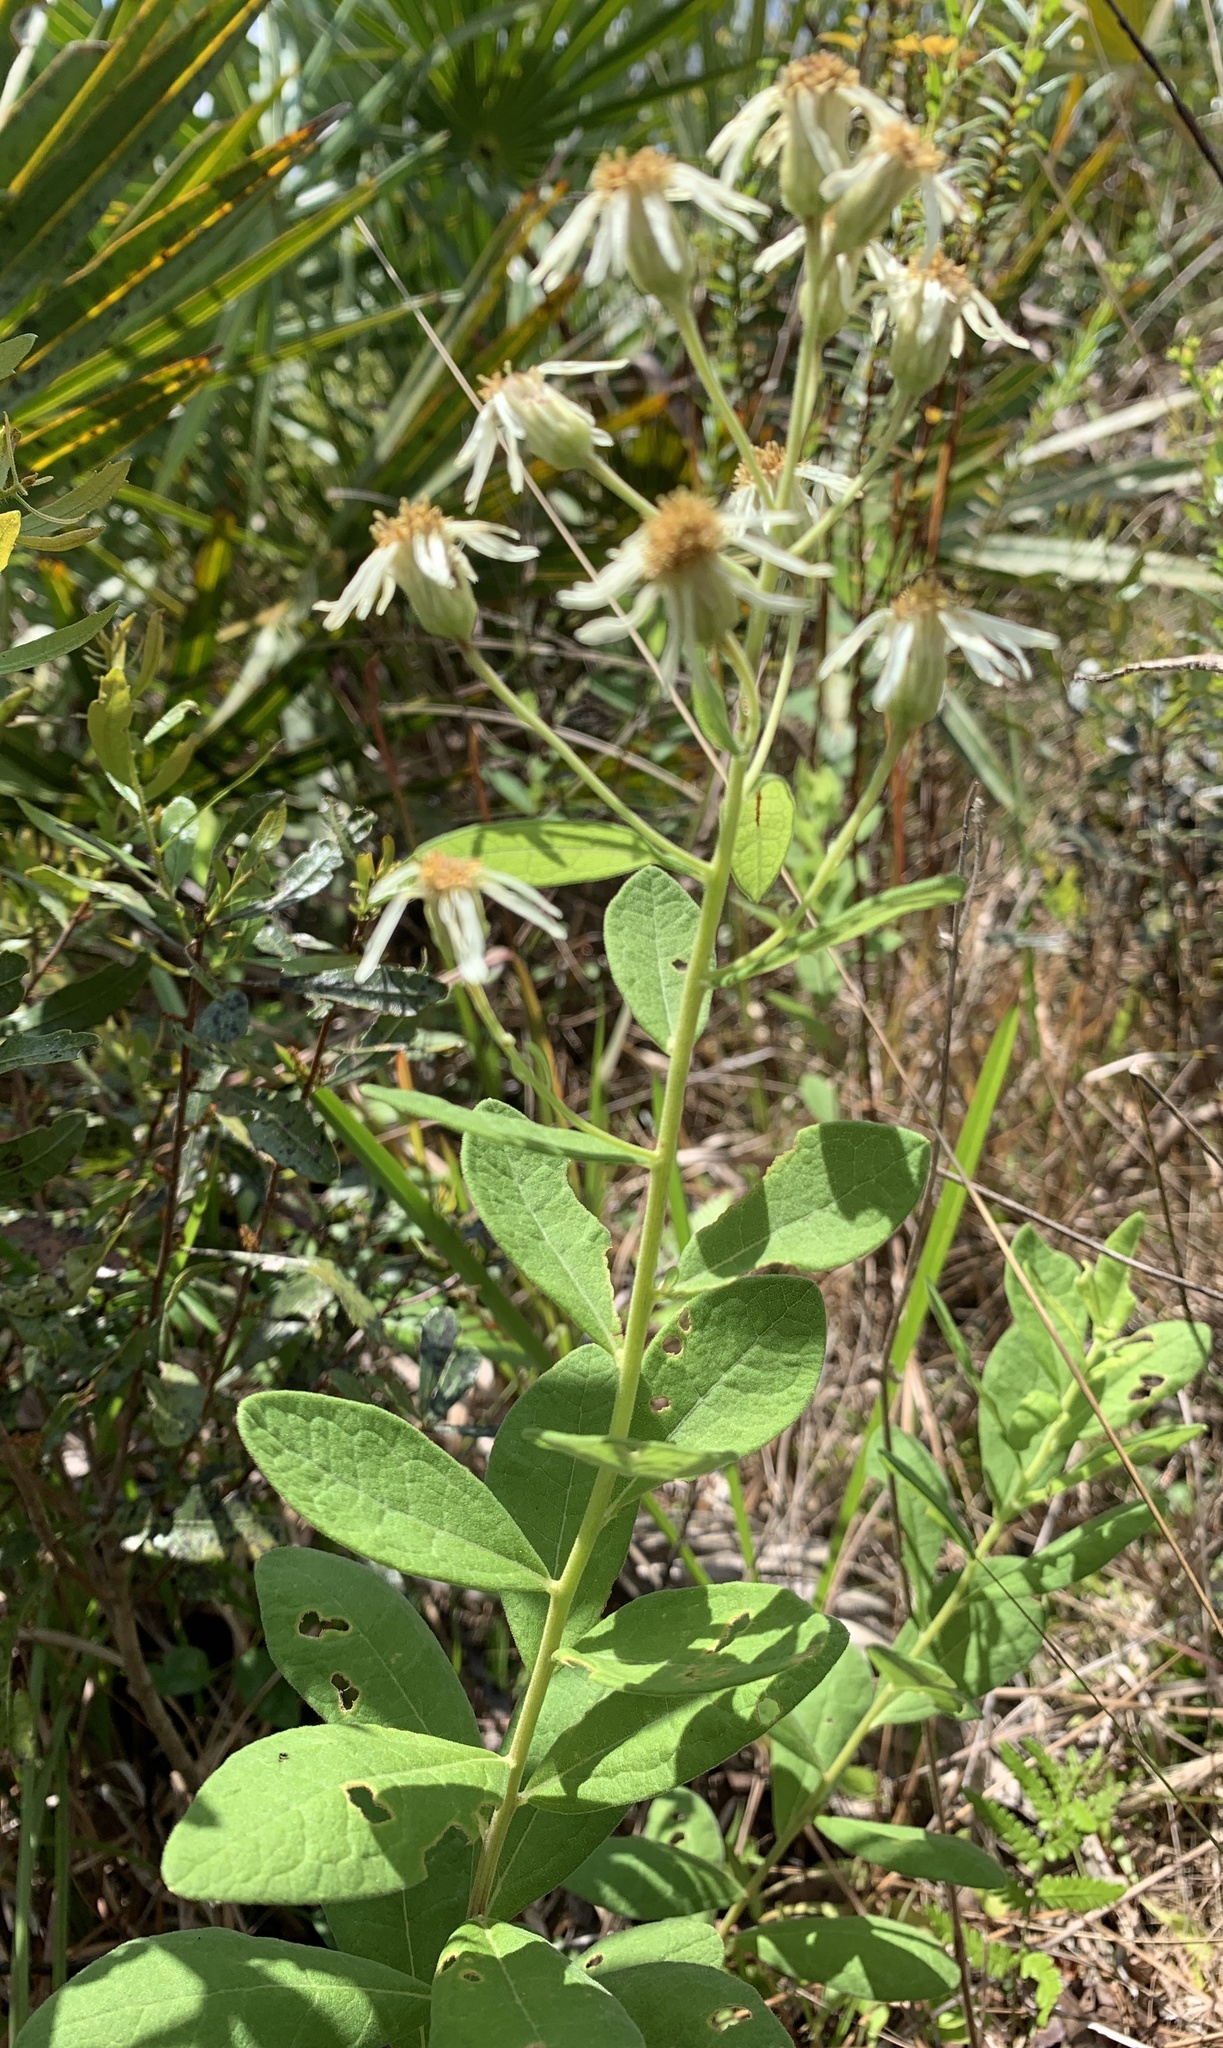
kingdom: Plantae
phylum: Tracheophyta
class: Magnoliopsida
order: Asterales
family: Asteraceae
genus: Oclemena
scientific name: Oclemena reticulata
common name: Pinebarren aster
